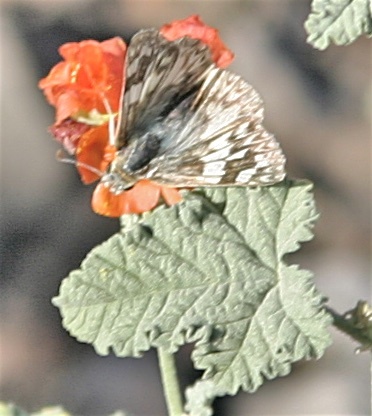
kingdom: Animalia
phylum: Arthropoda
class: Insecta
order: Lepidoptera
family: Hesperiidae
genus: Heliopetes
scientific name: Heliopetes ericetorum
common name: Northern white-skipper
